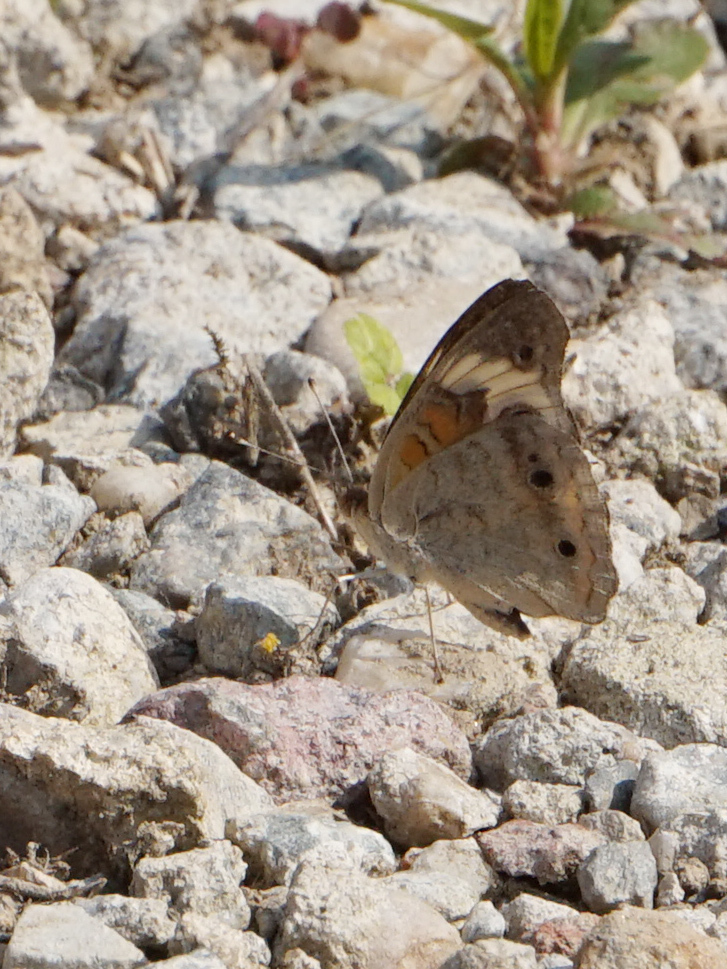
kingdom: Animalia
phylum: Arthropoda
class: Insecta
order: Lepidoptera
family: Nymphalidae
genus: Junonia
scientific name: Junonia coenia
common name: Common buckeye
